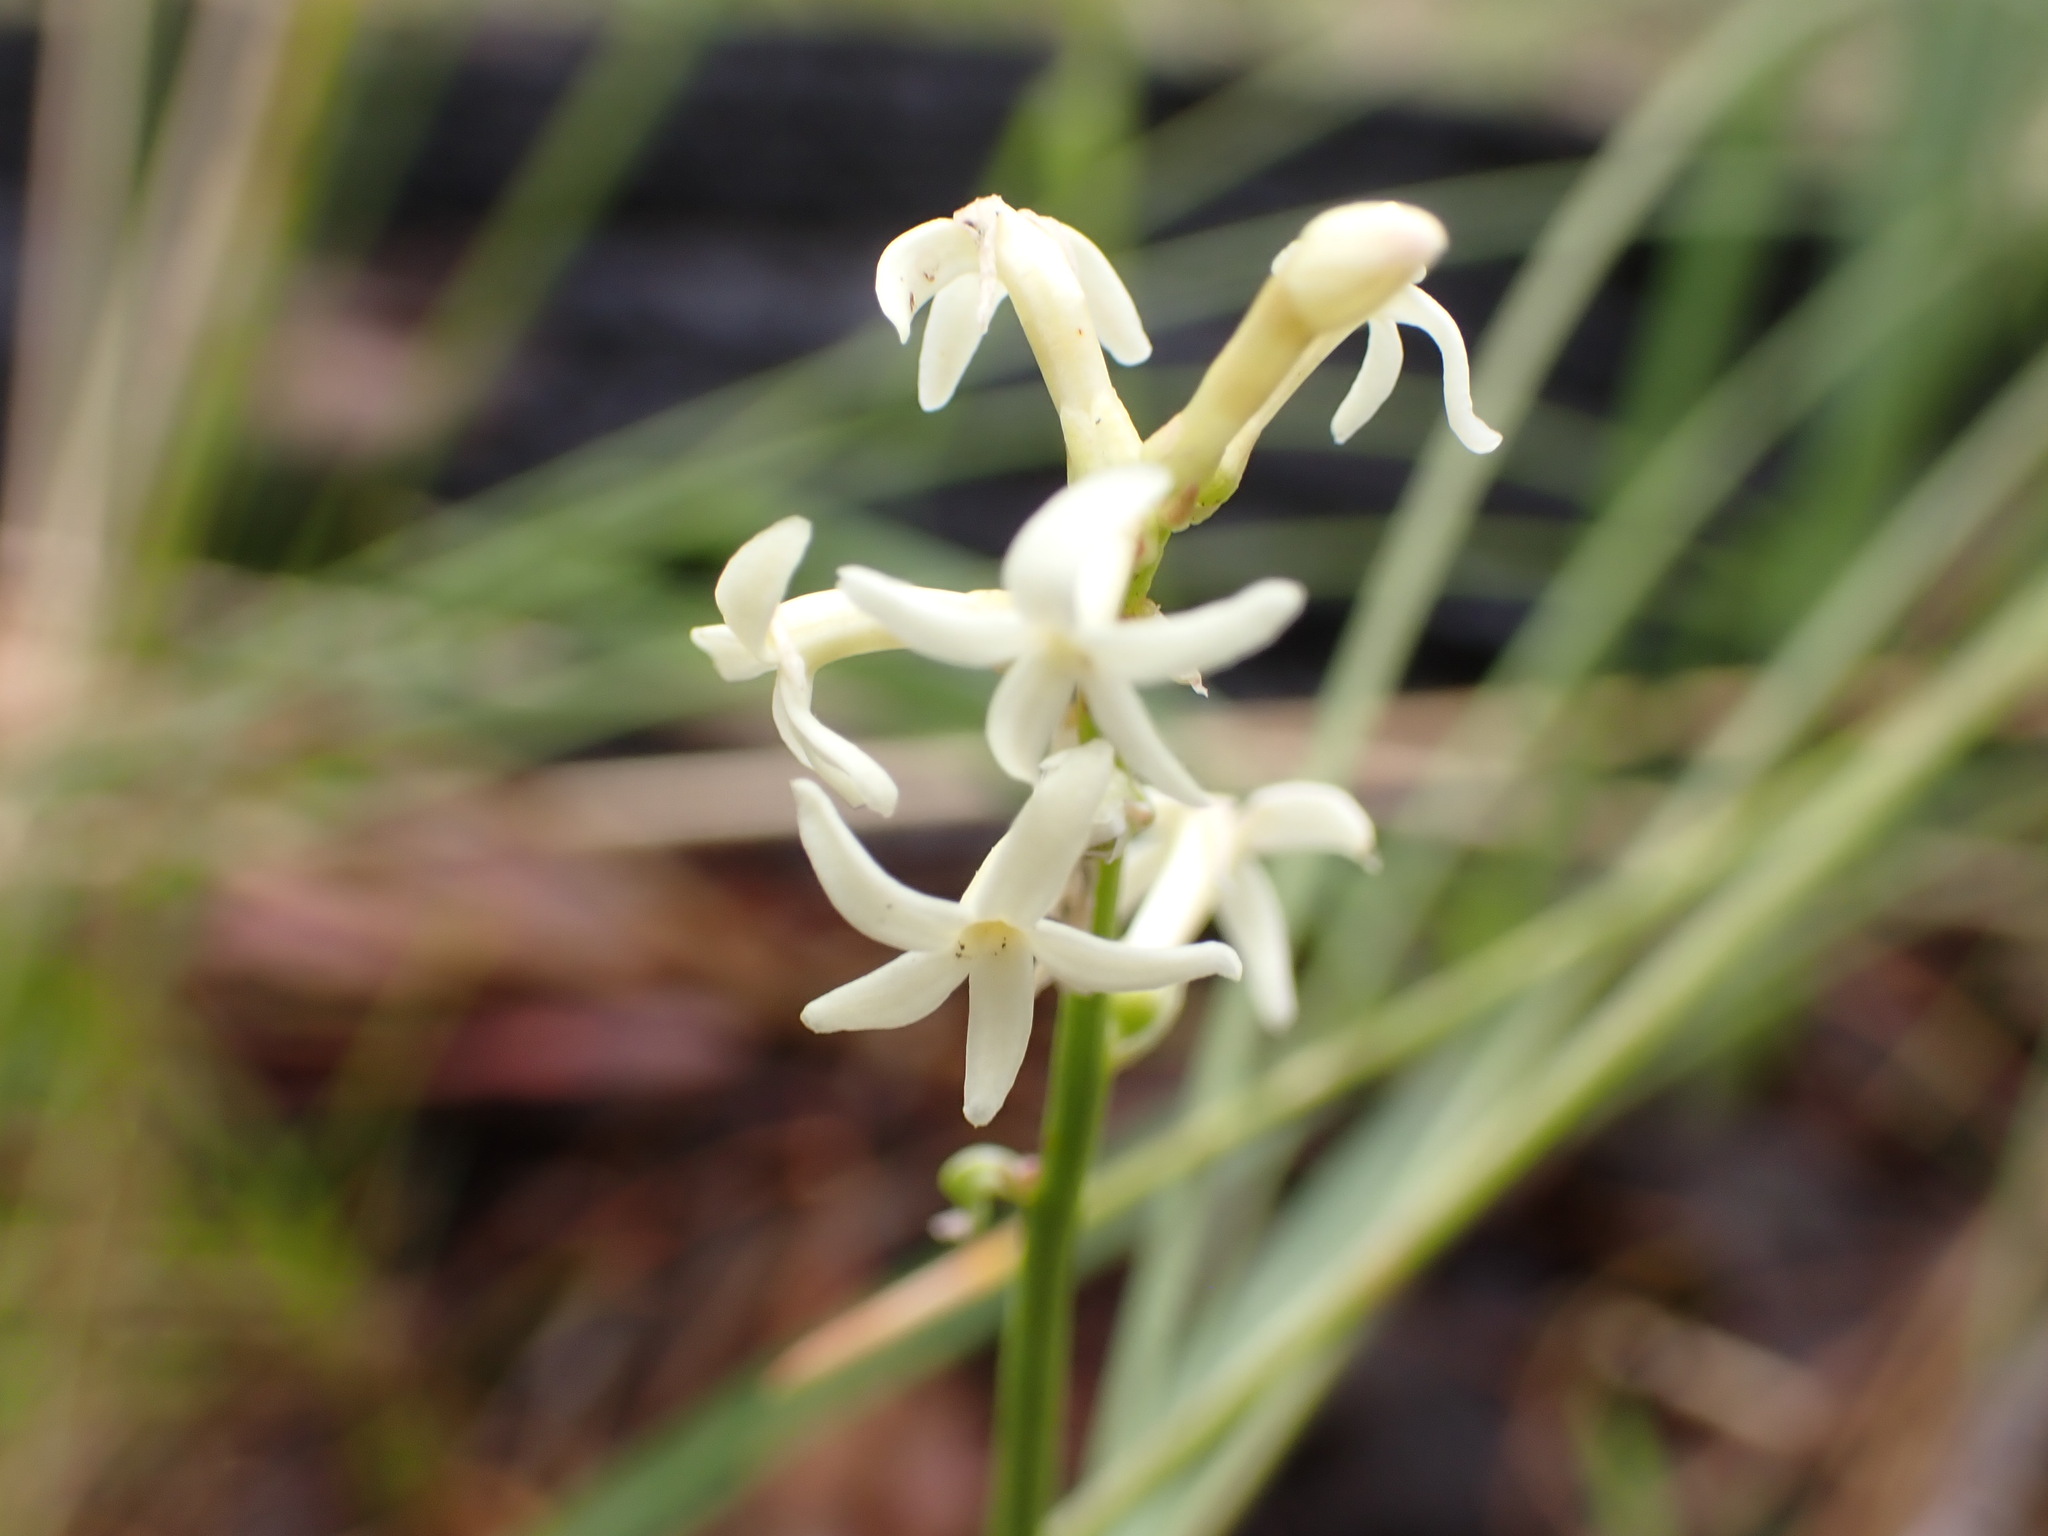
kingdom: Plantae
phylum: Tracheophyta
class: Magnoliopsida
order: Celastrales
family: Celastraceae
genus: Stackhousia
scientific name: Stackhousia monogyna
